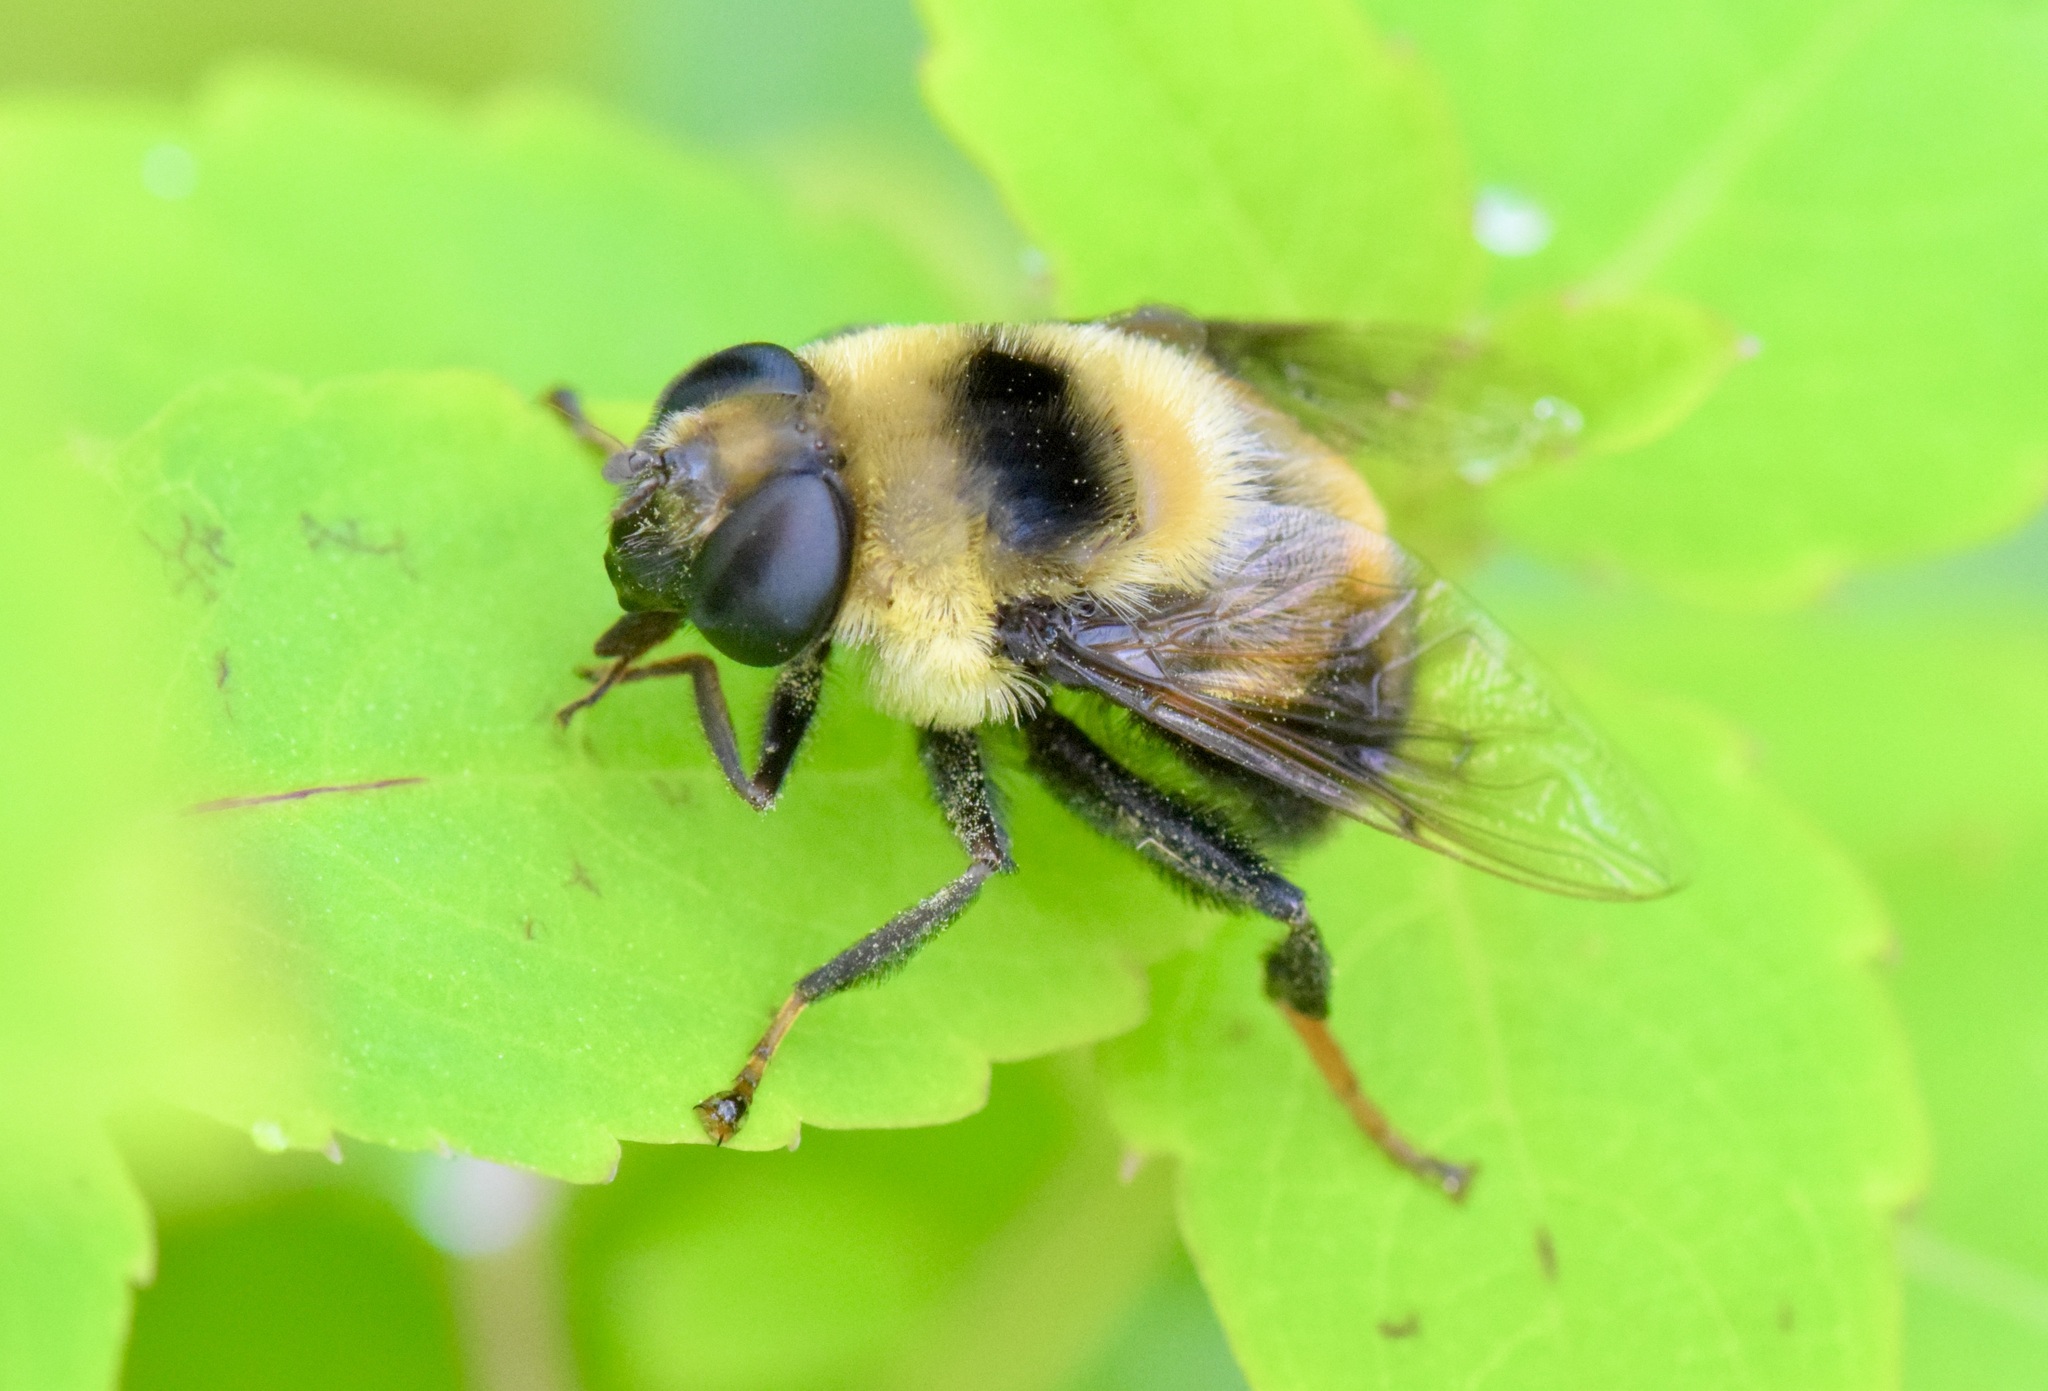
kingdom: Animalia
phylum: Arthropoda
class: Insecta
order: Diptera
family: Syrphidae
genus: Eristalis
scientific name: Eristalis flavipes
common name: Orange-legged drone fly
